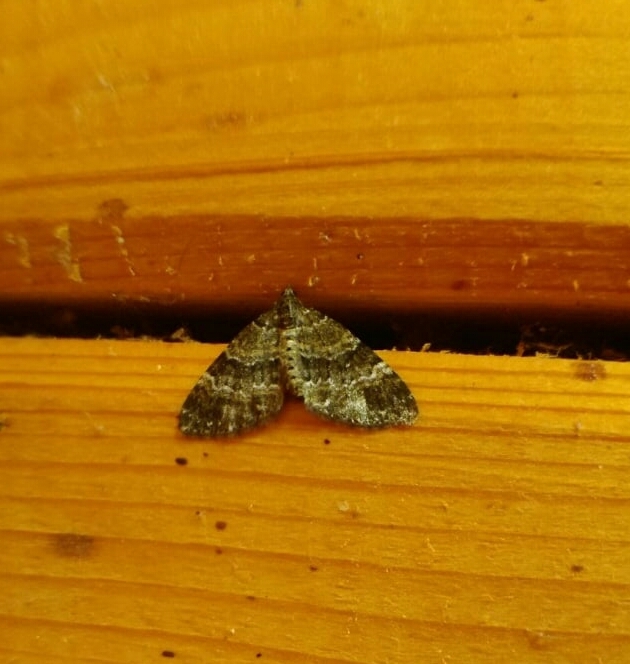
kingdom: Animalia
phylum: Arthropoda
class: Insecta
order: Lepidoptera
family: Geometridae
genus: Perizoma
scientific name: Perizoma taeniata
